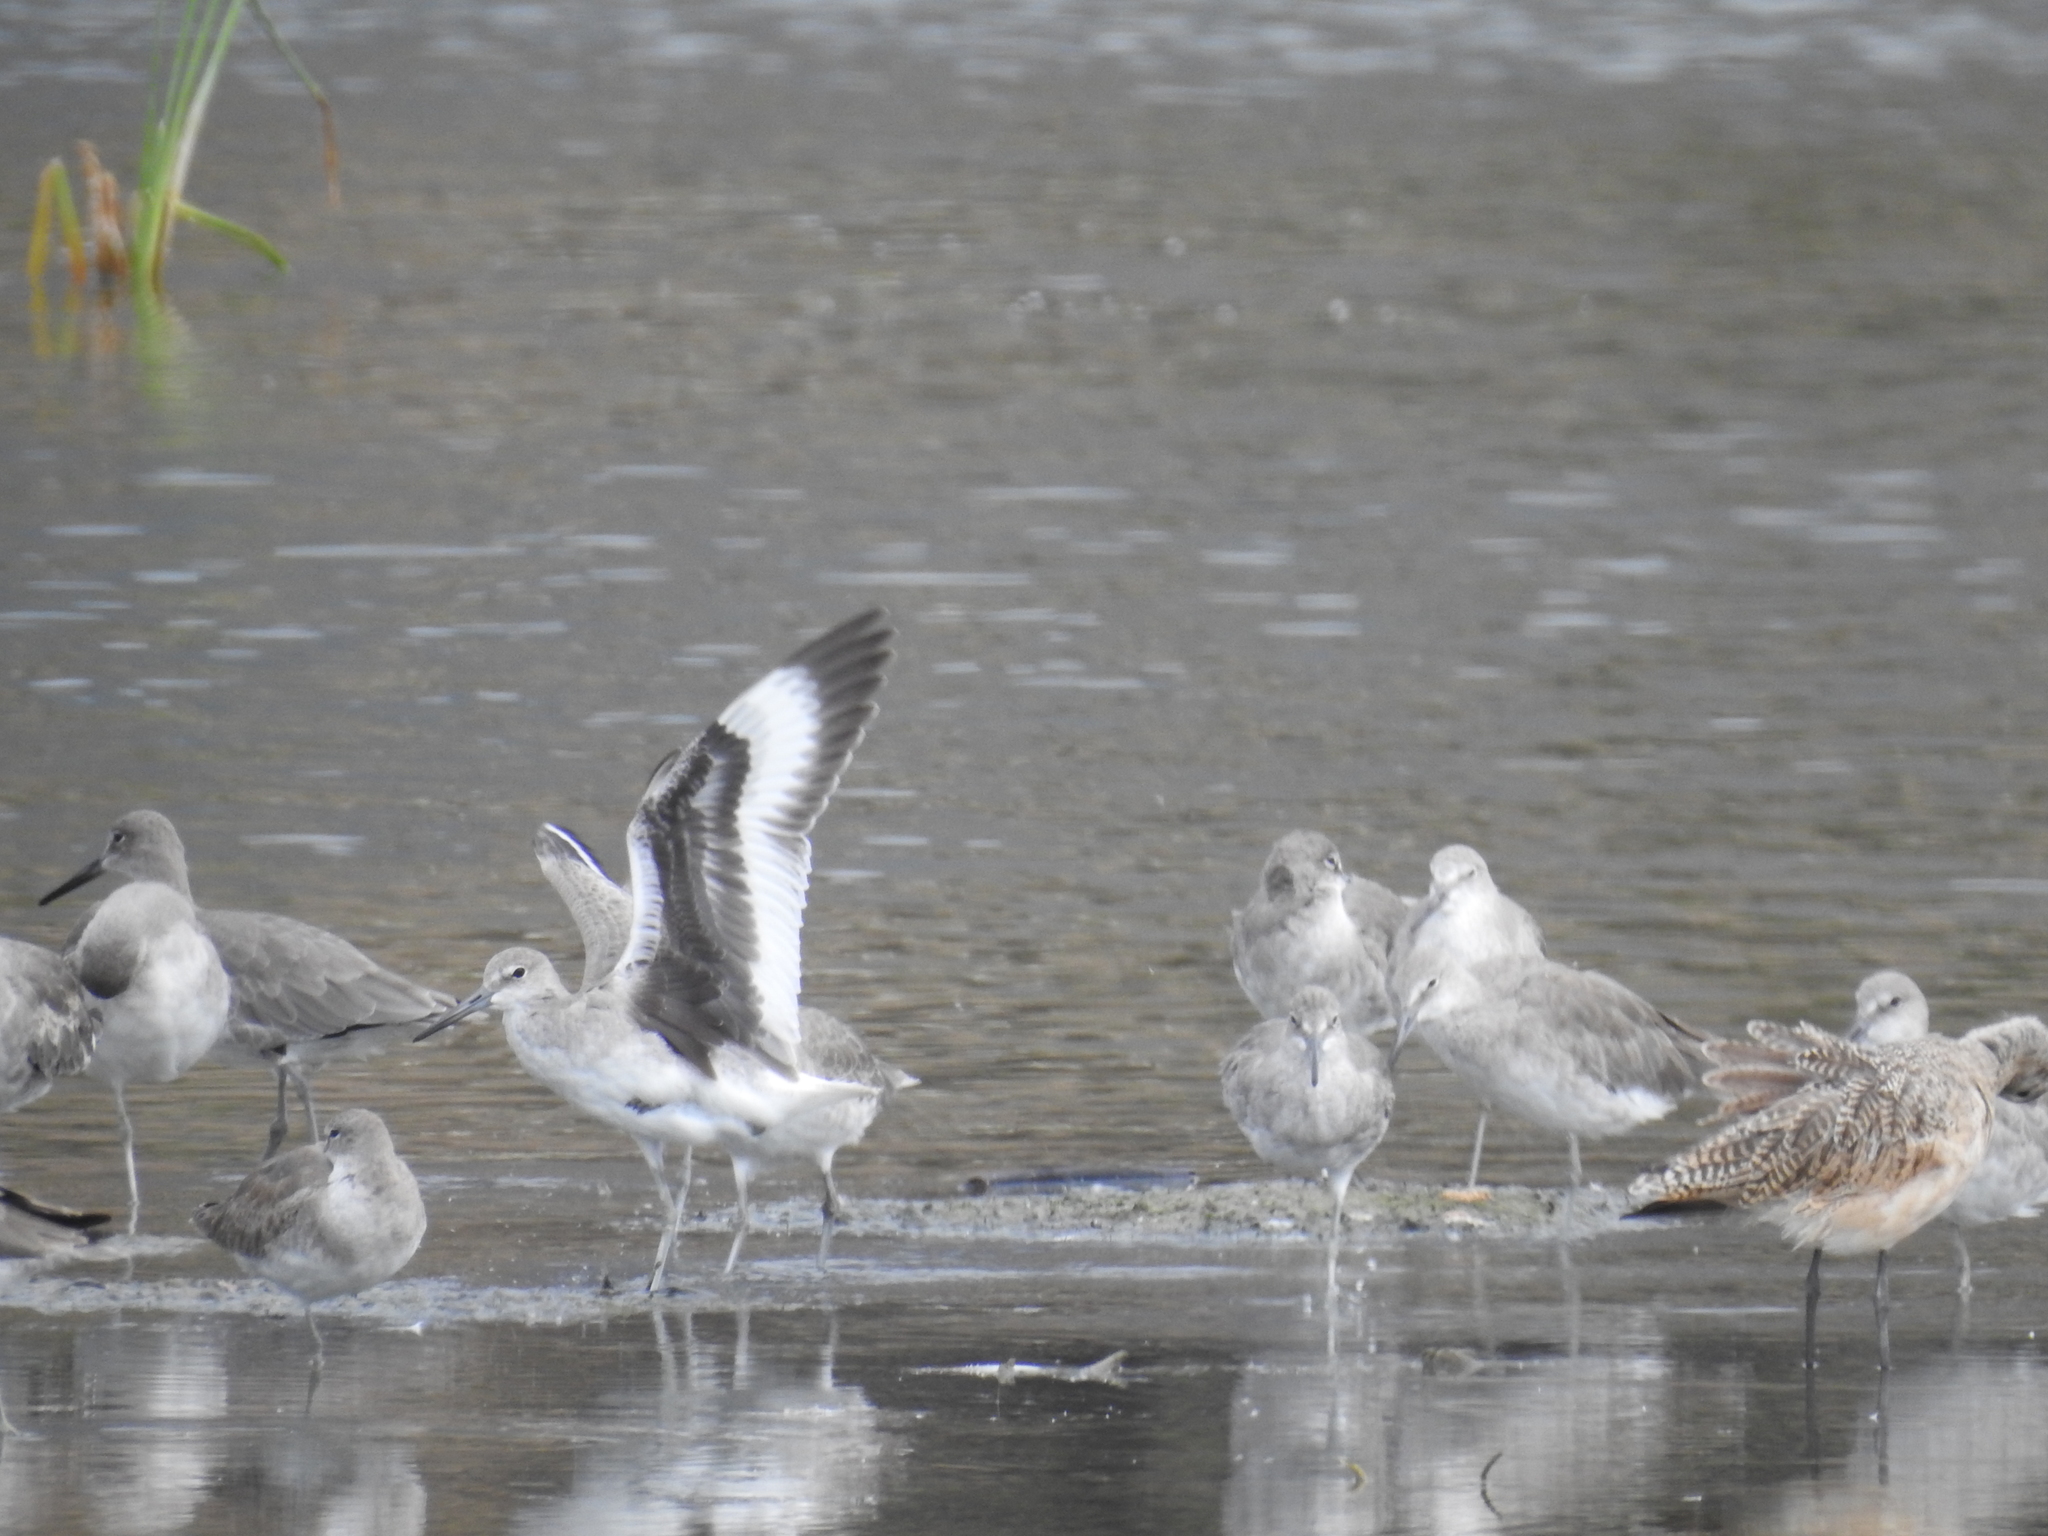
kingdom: Animalia
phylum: Chordata
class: Aves
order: Charadriiformes
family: Scolopacidae
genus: Tringa
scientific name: Tringa semipalmata
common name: Willet
